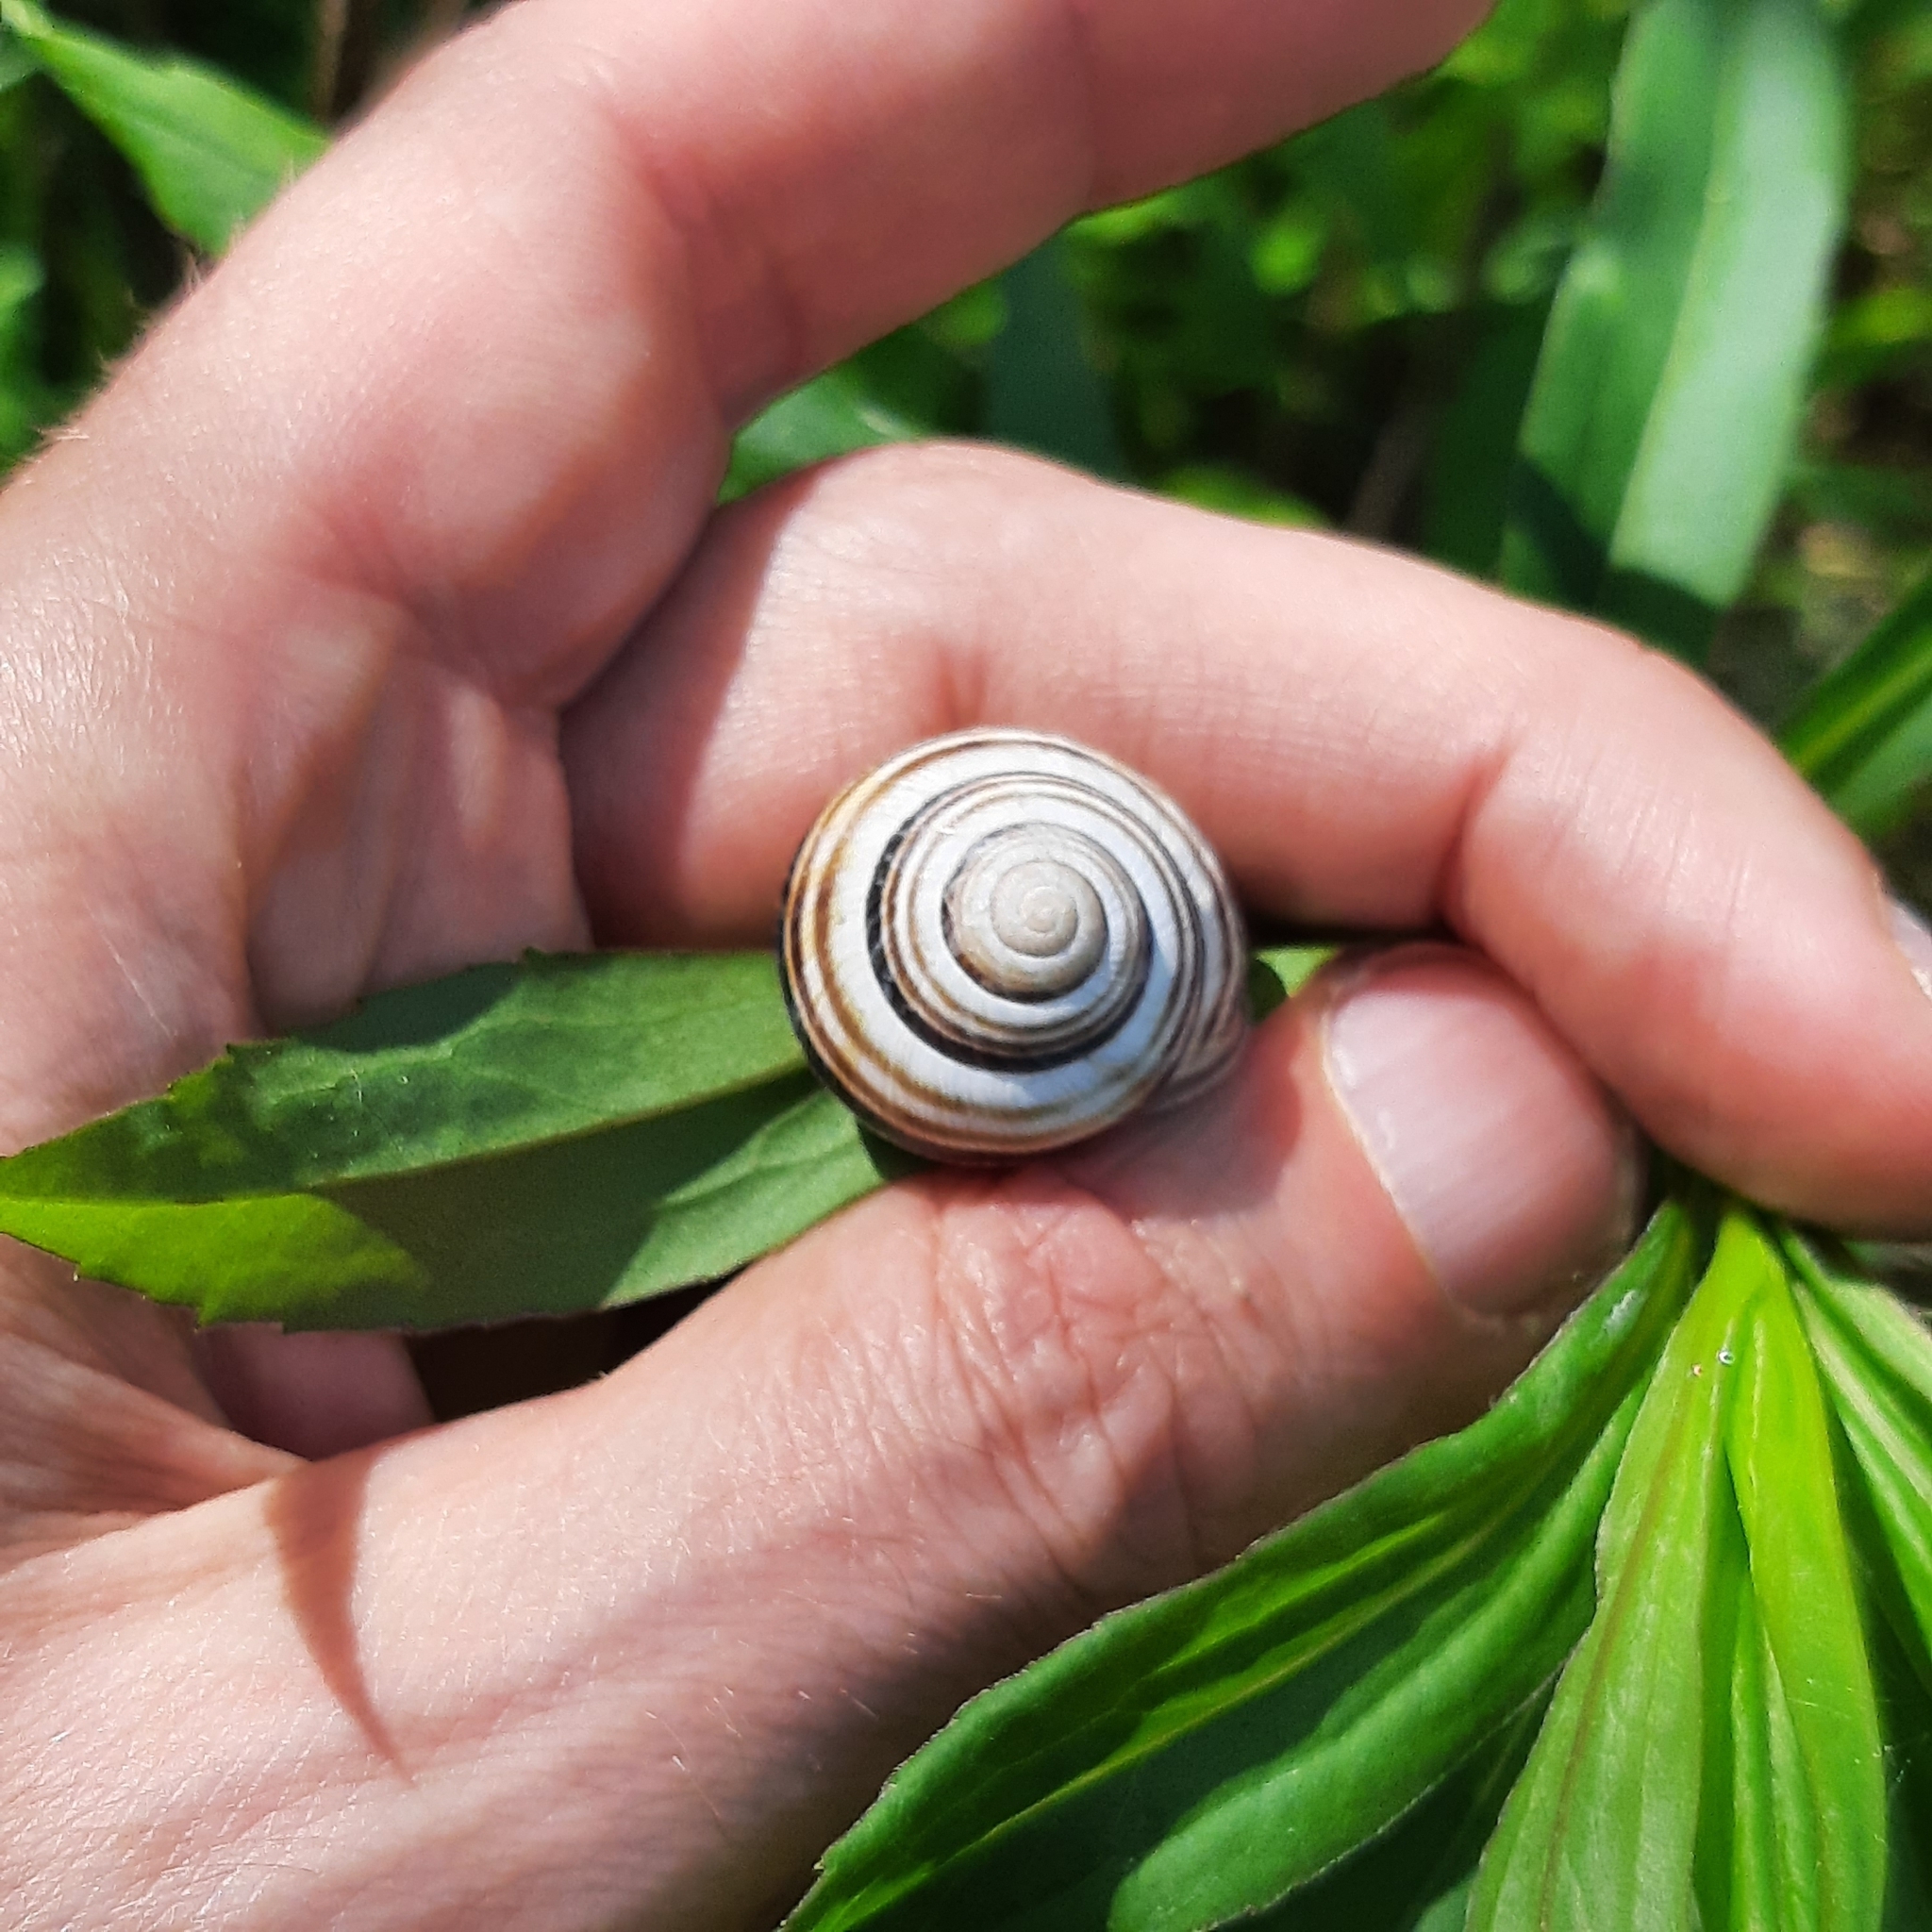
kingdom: Animalia
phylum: Mollusca
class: Gastropoda
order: Stylommatophora
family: Helicidae
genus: Caucasotachea
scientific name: Caucasotachea vindobonensis
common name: European helicid land snail
